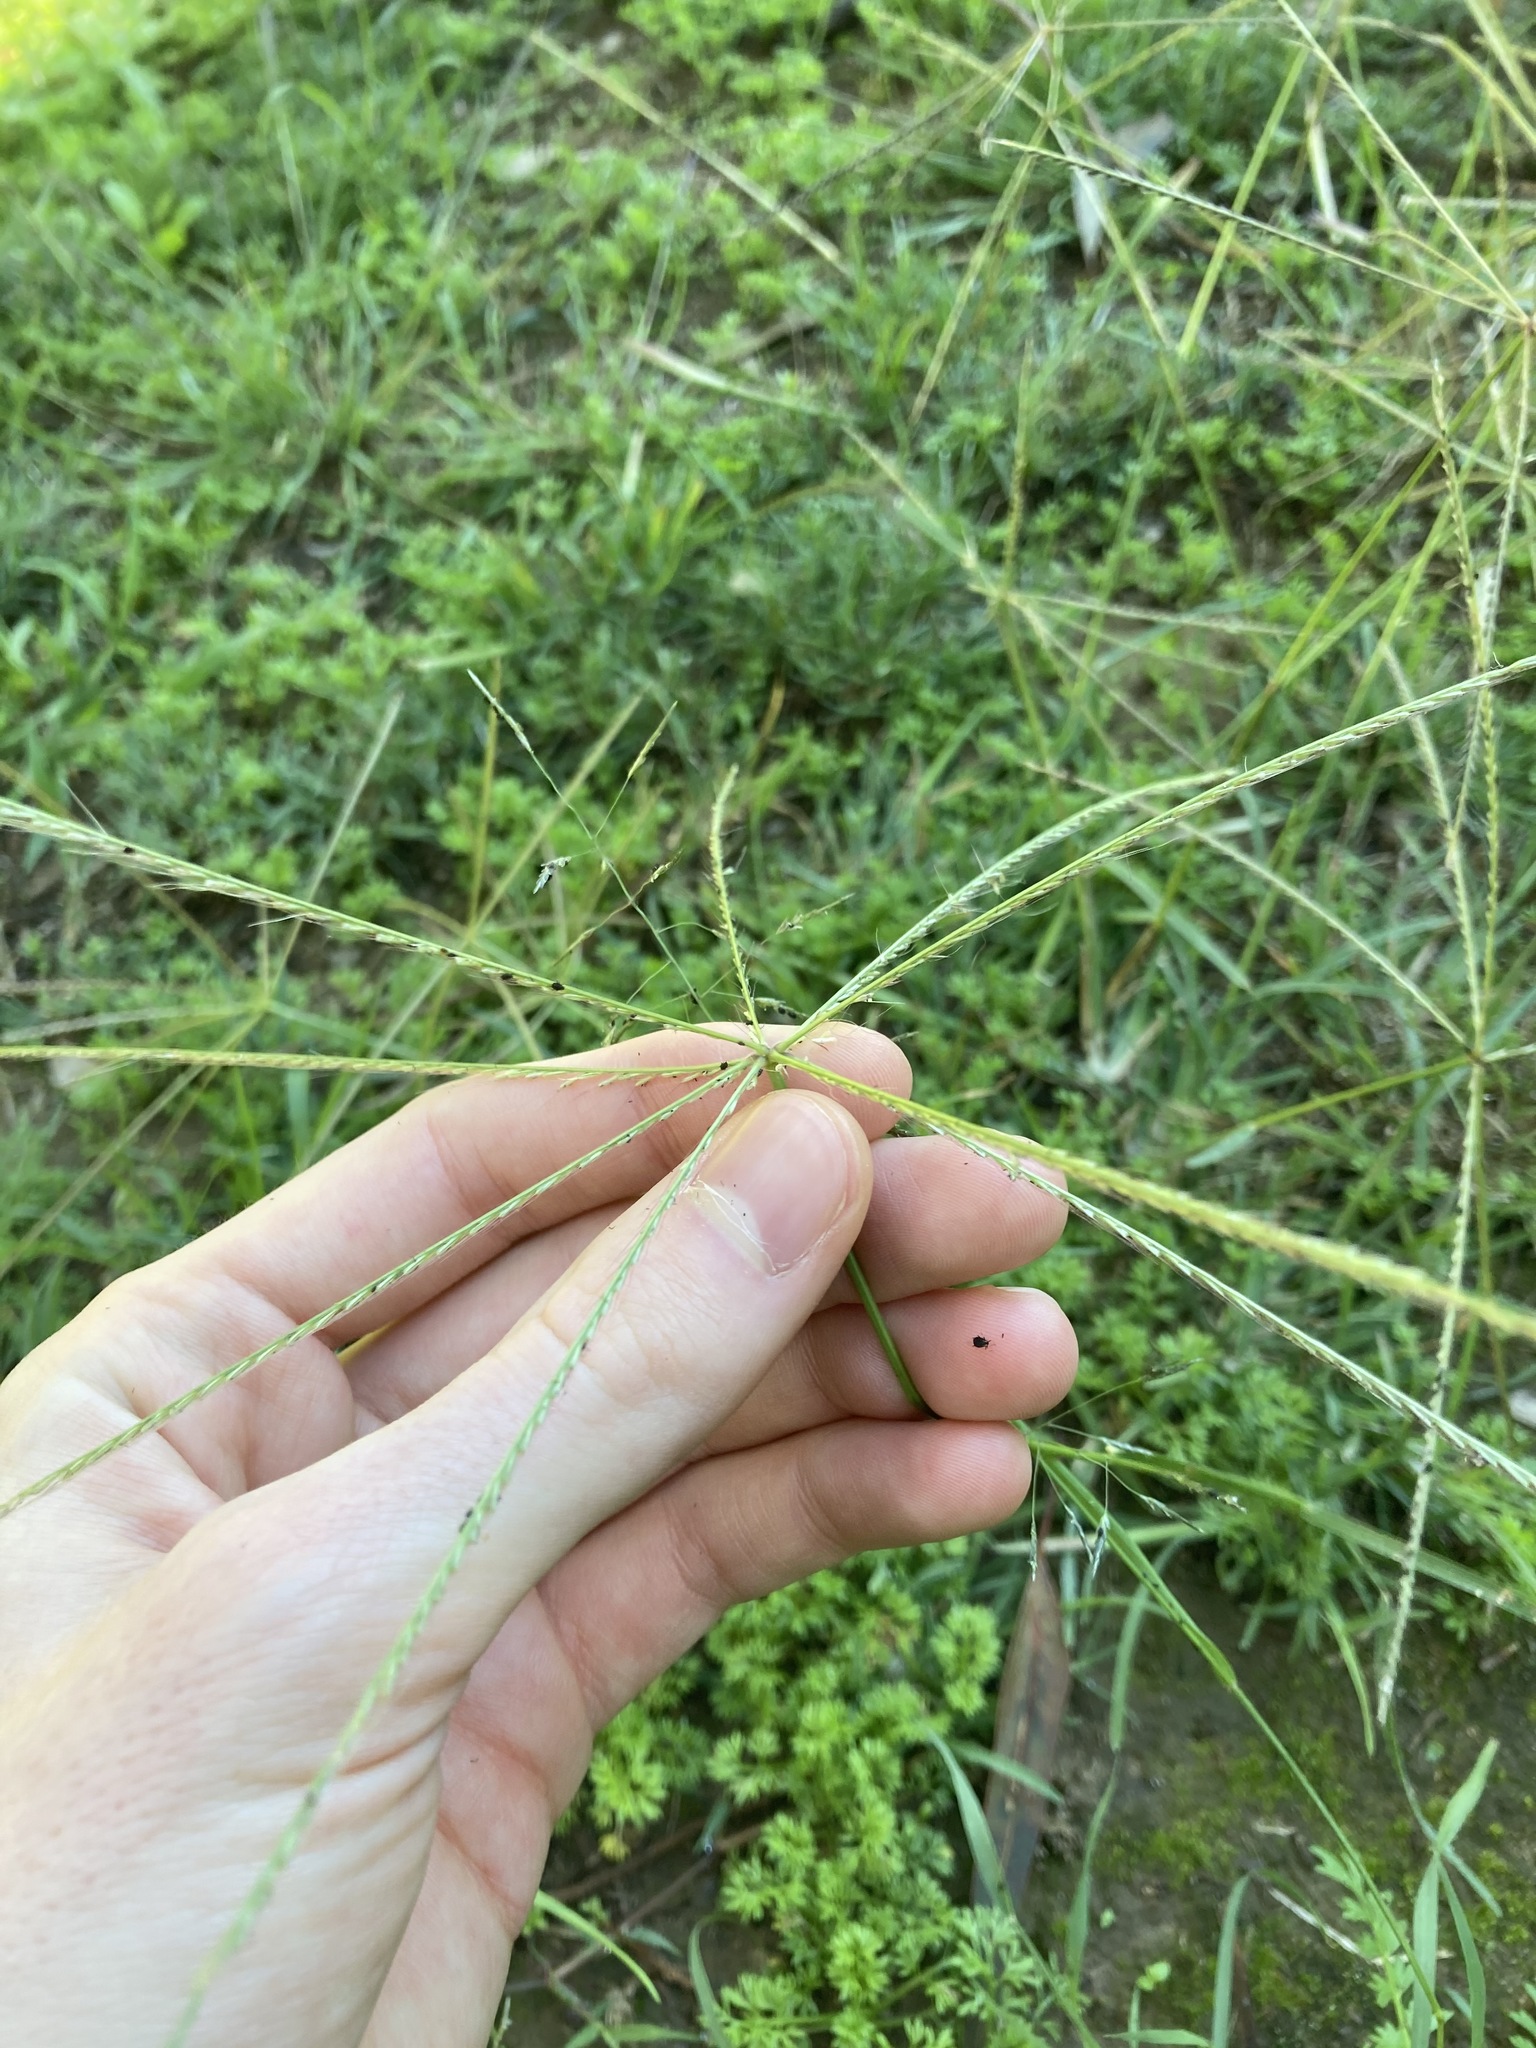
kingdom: Plantae
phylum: Tracheophyta
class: Liliopsida
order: Poales
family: Poaceae
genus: Chloris
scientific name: Chloris truncata
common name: Windmill-grass
